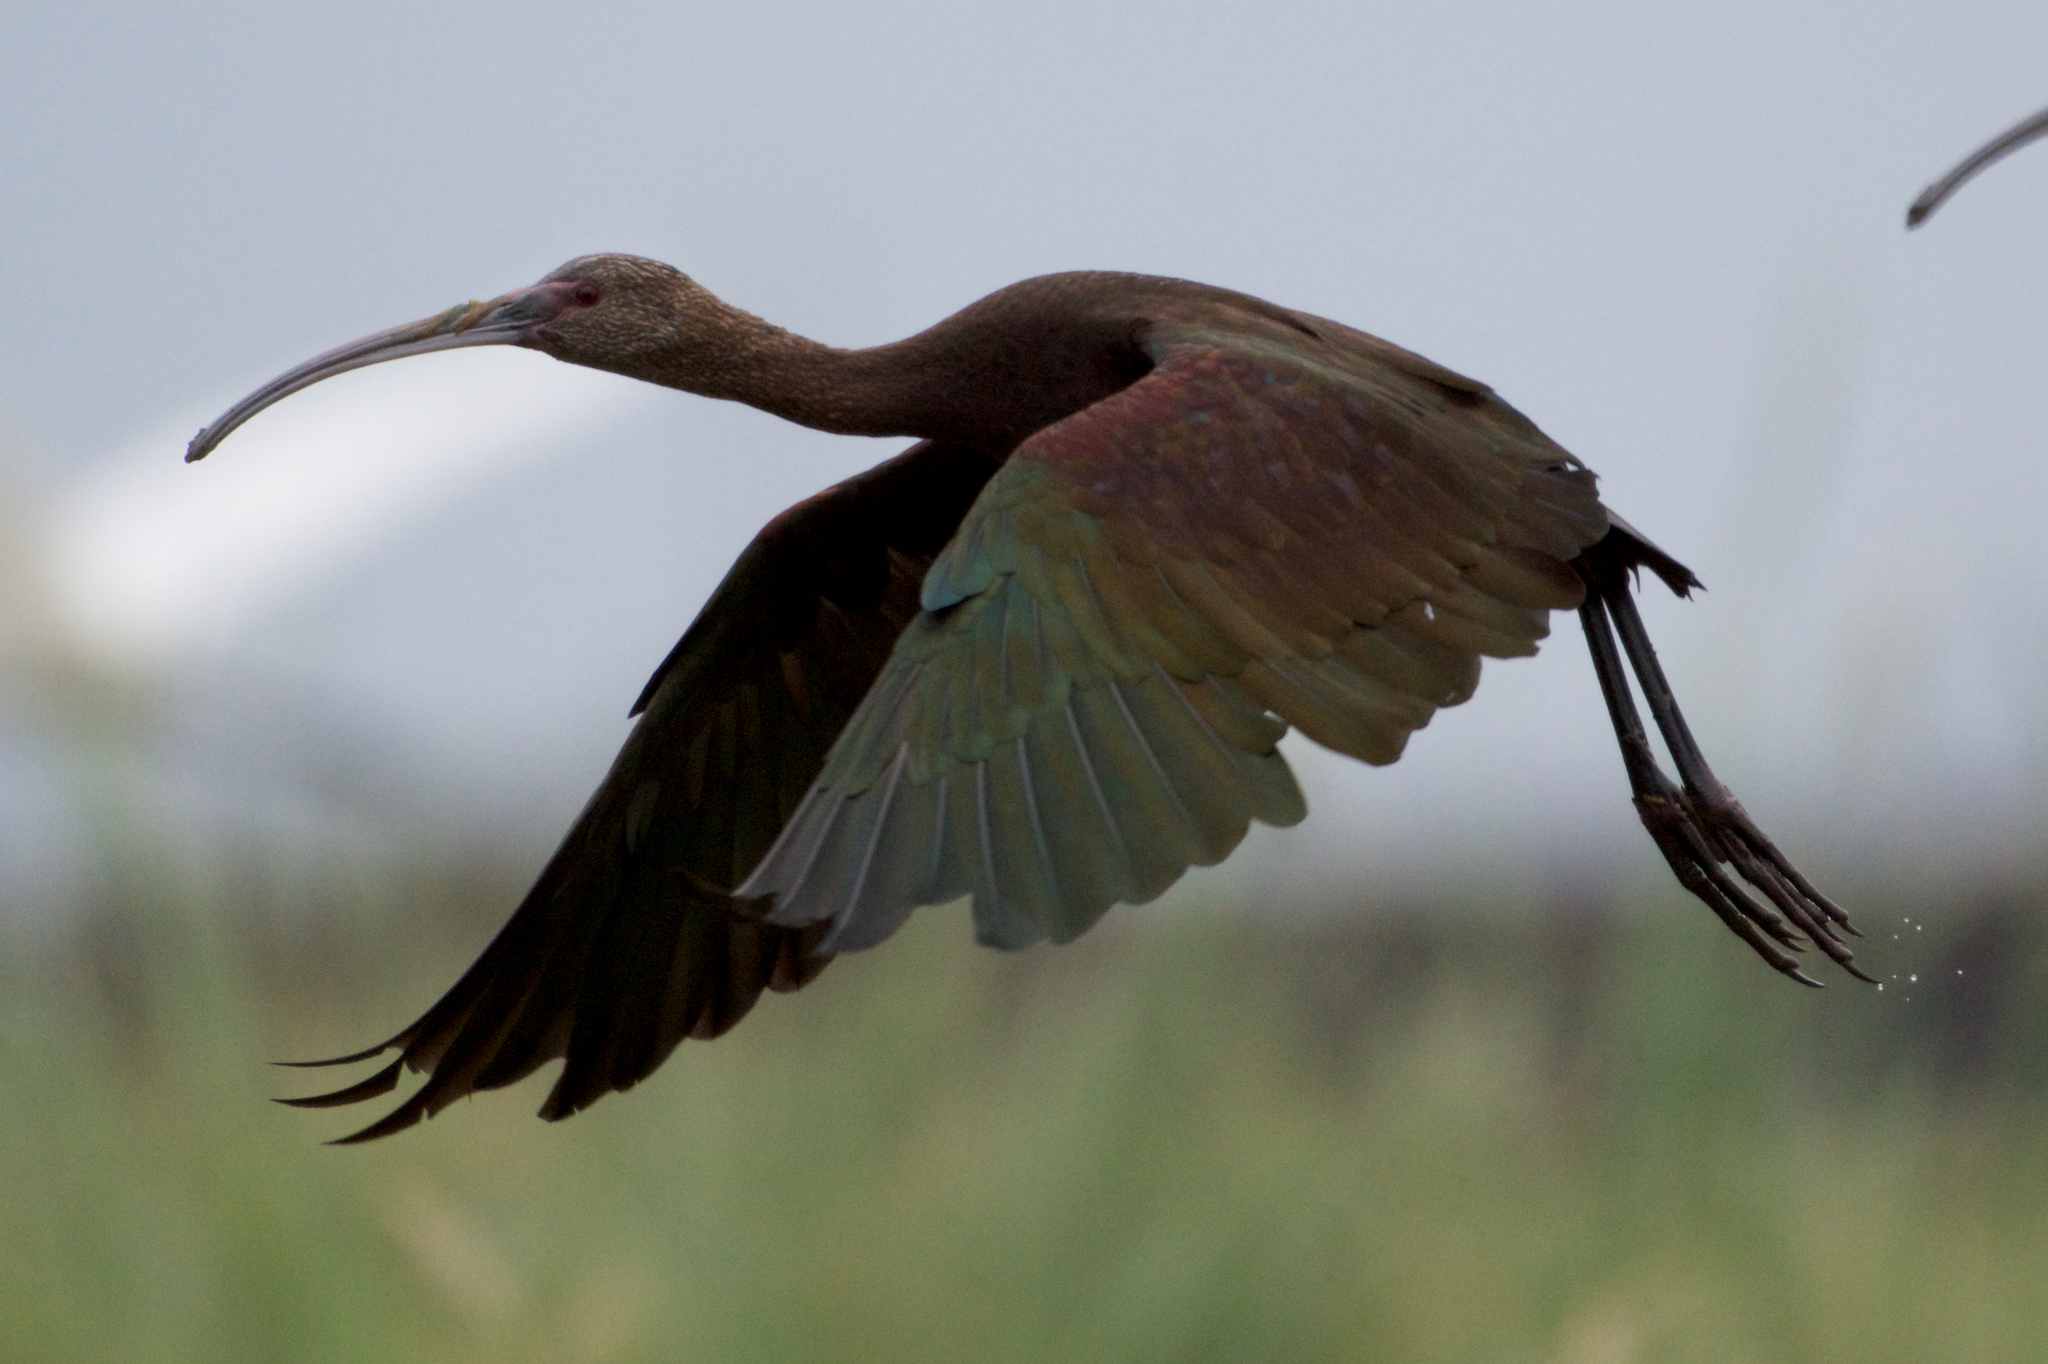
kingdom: Animalia
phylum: Chordata
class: Aves
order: Pelecaniformes
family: Threskiornithidae
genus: Plegadis
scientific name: Plegadis chihi
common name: White-faced ibis
